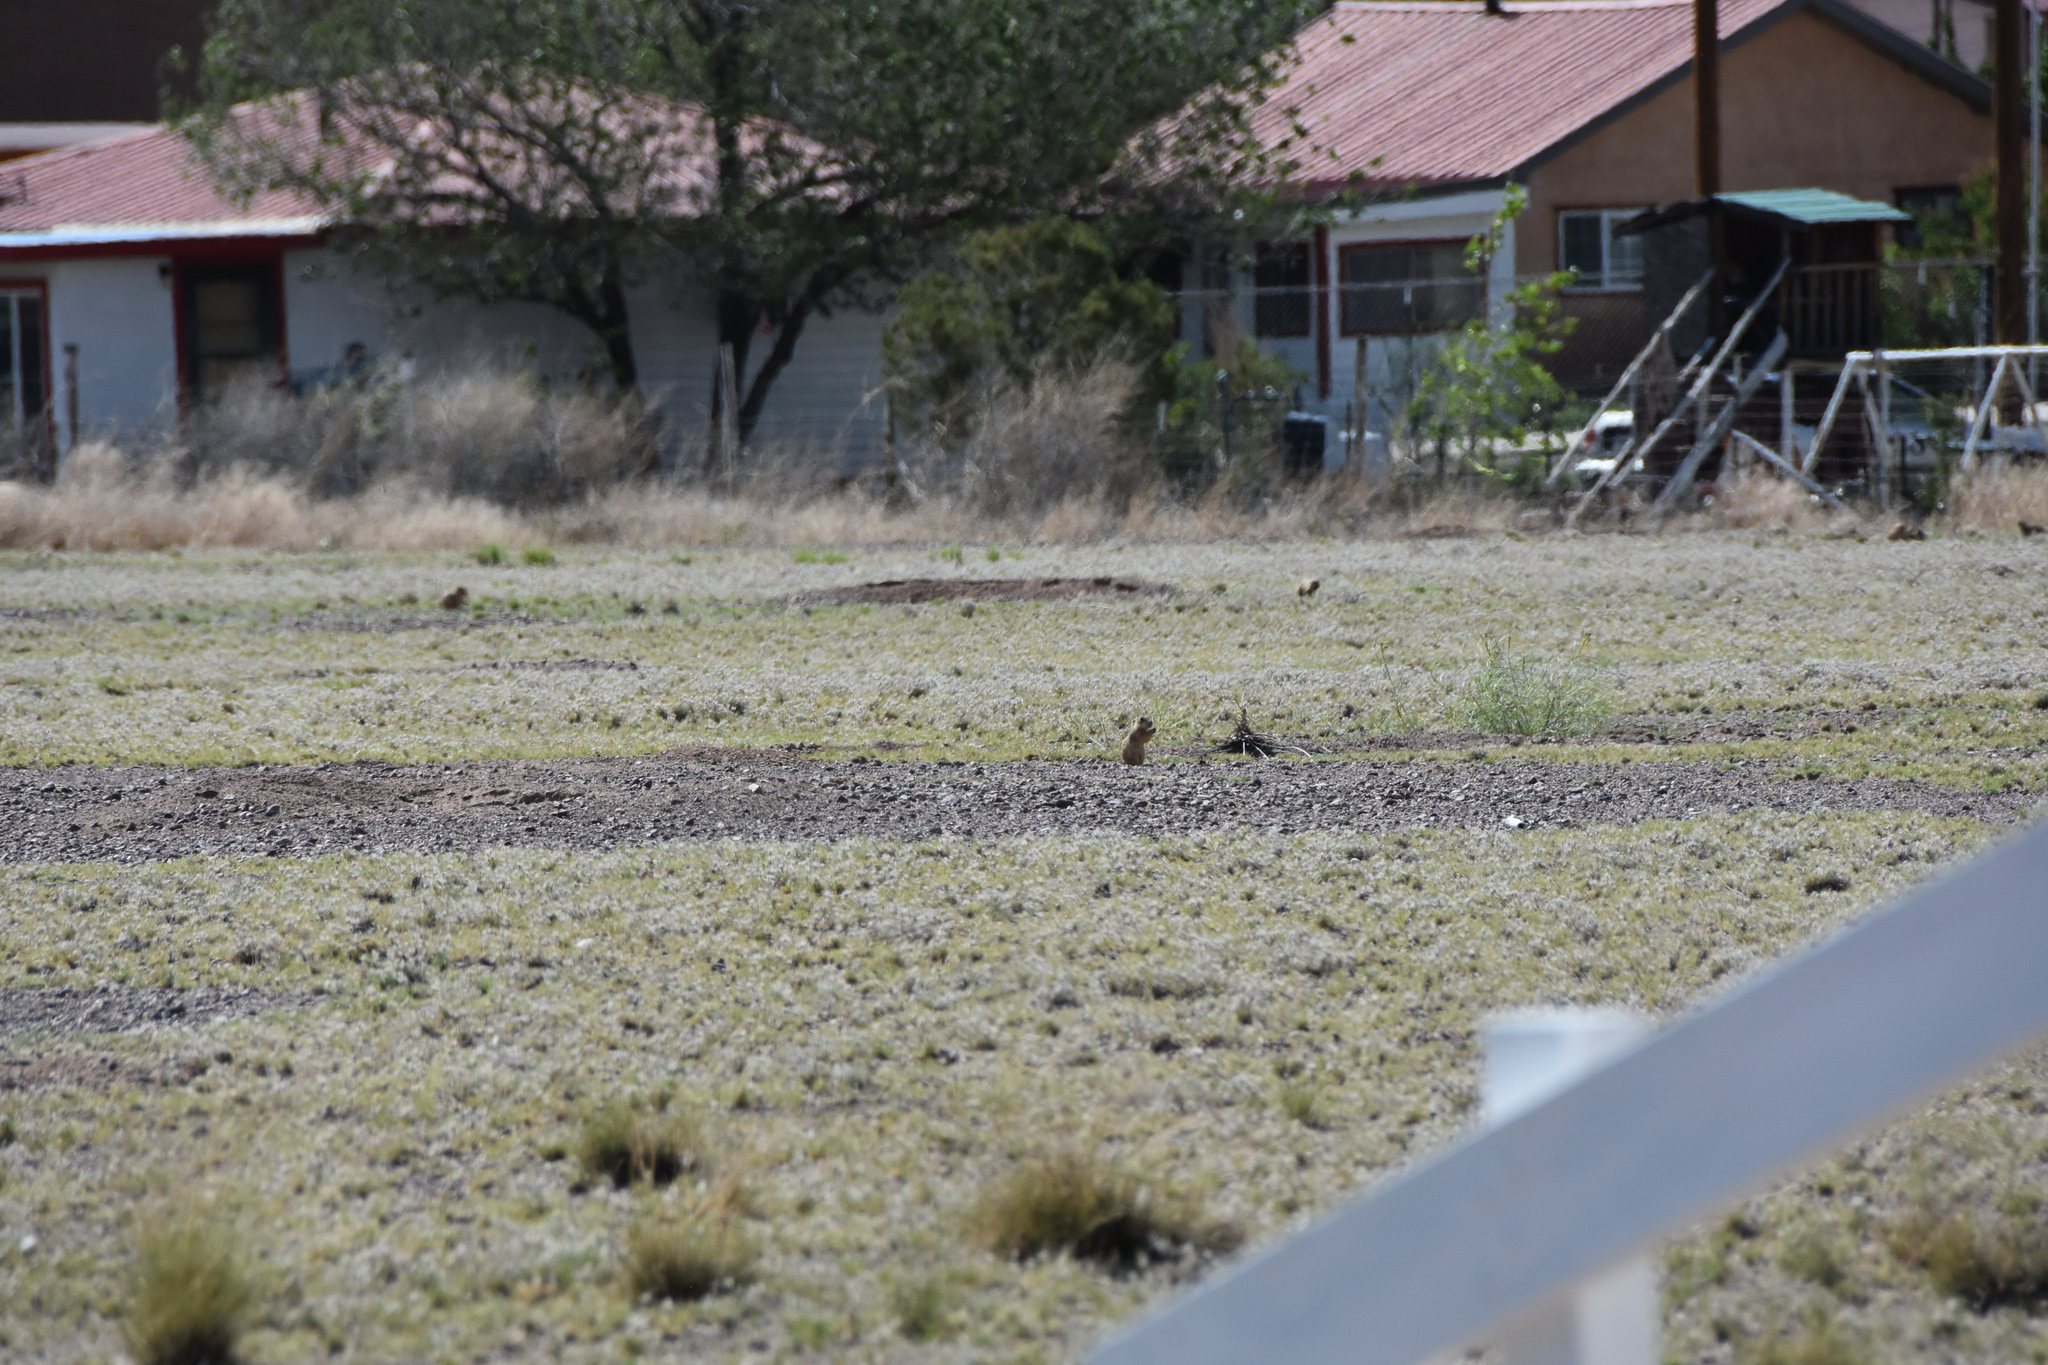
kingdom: Animalia
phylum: Chordata
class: Mammalia
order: Rodentia
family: Sciuridae
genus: Cynomys
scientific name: Cynomys gunnisoni
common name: Gunnison's prairie dog
